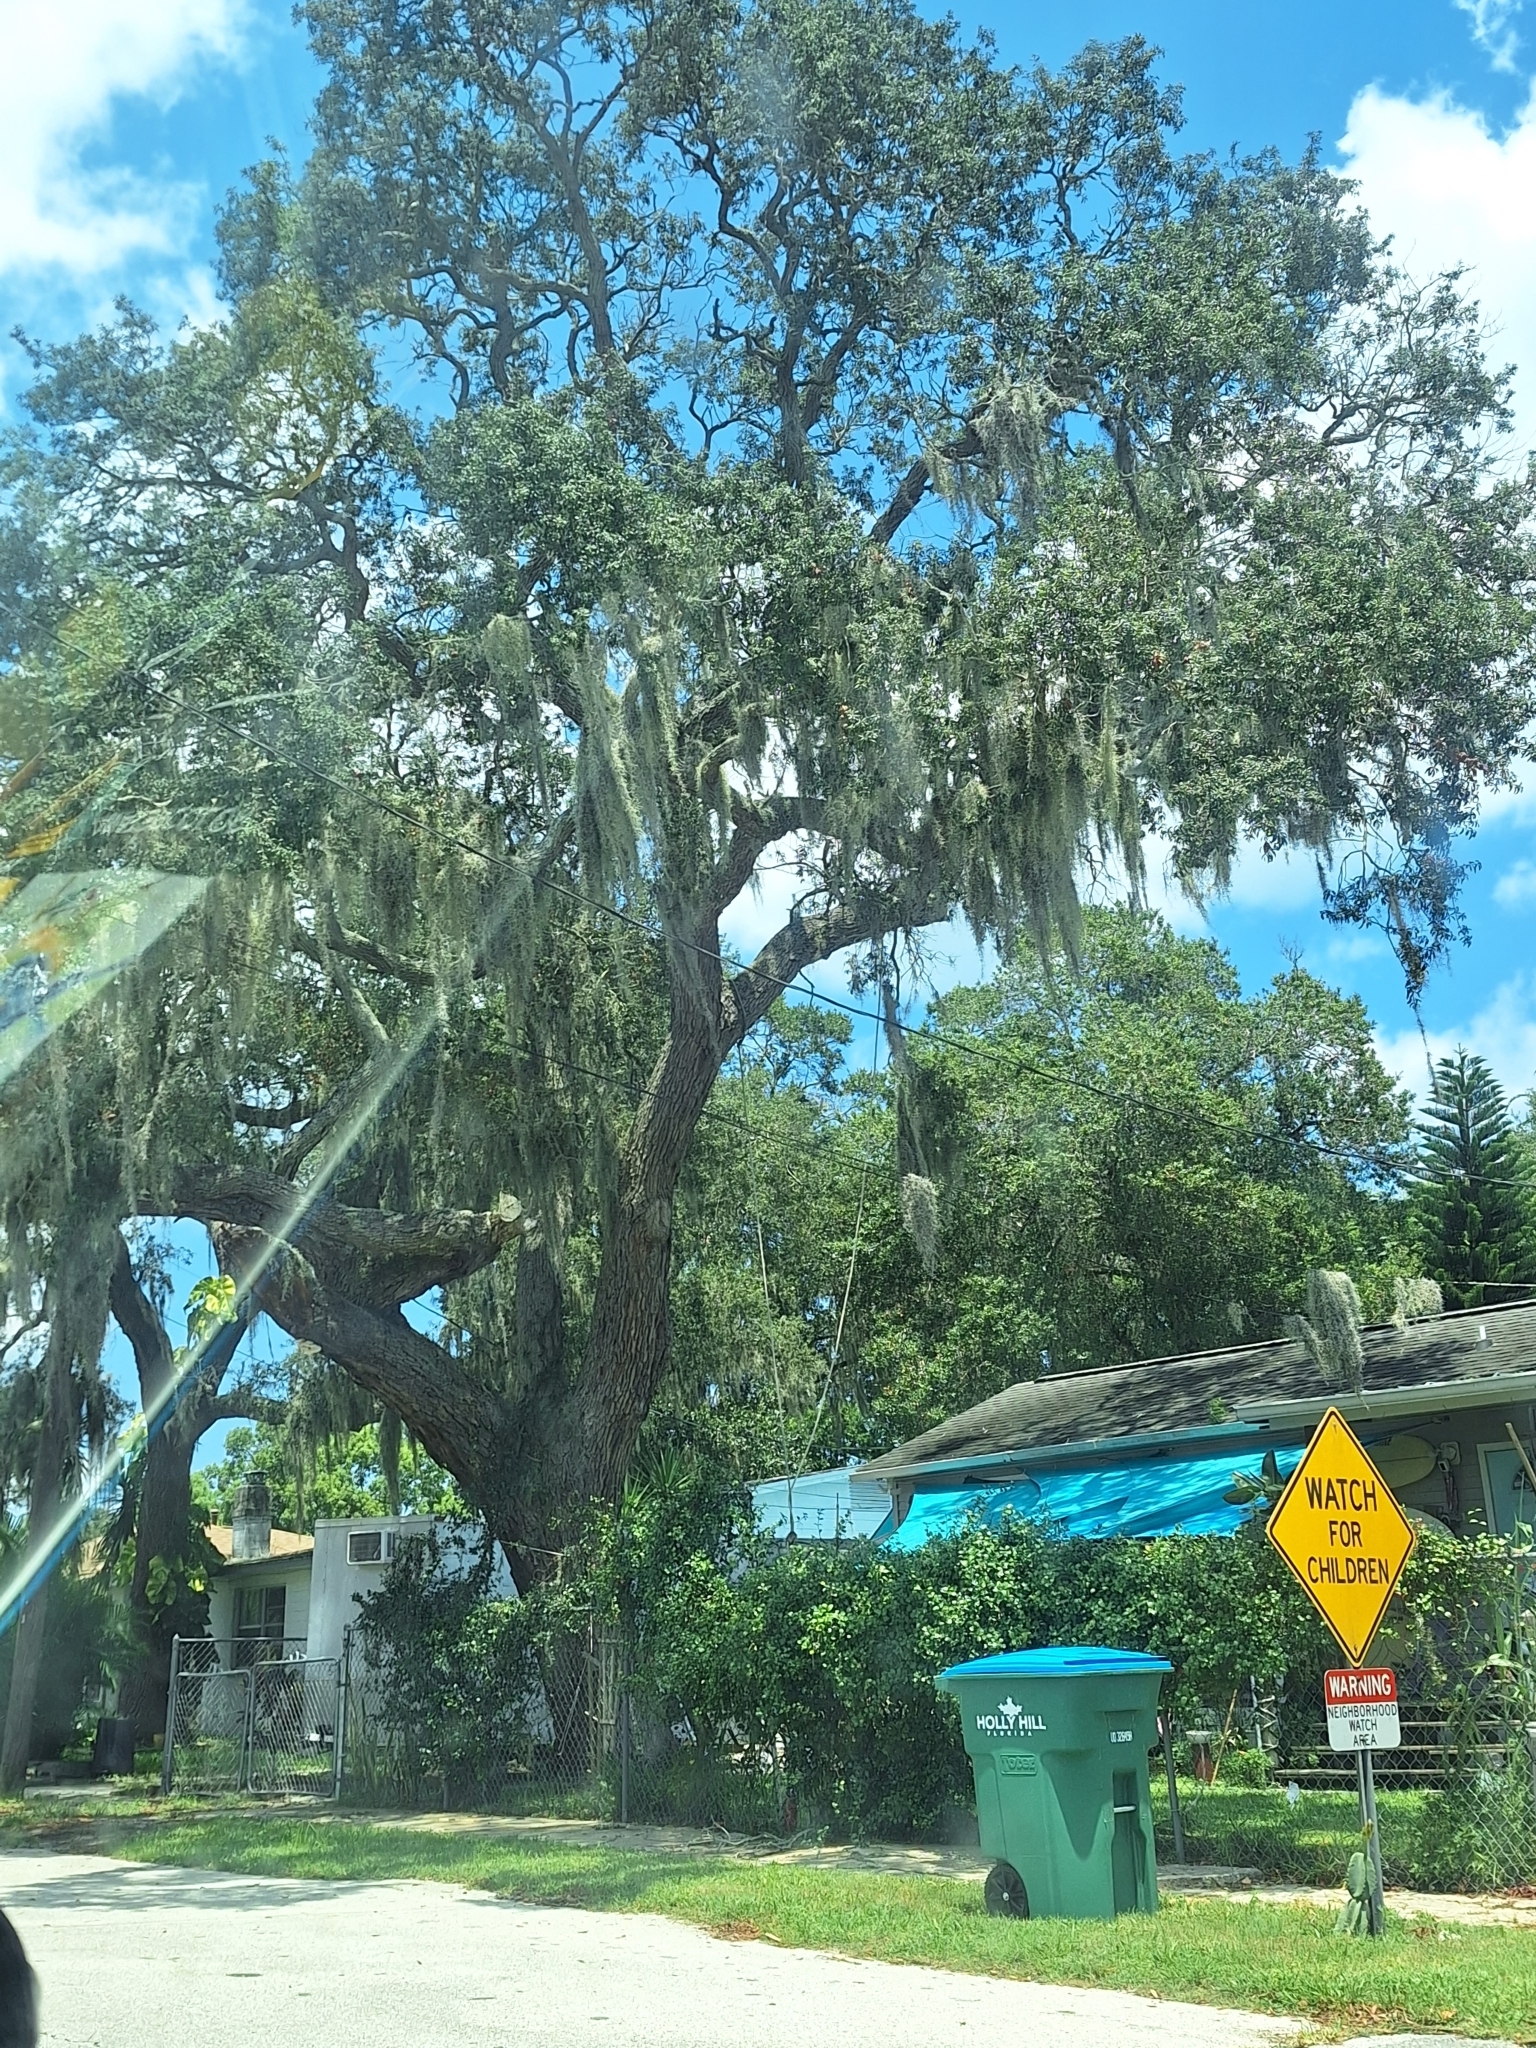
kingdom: Plantae
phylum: Tracheophyta
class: Liliopsida
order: Poales
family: Bromeliaceae
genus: Tillandsia
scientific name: Tillandsia usneoides
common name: Spanish moss
